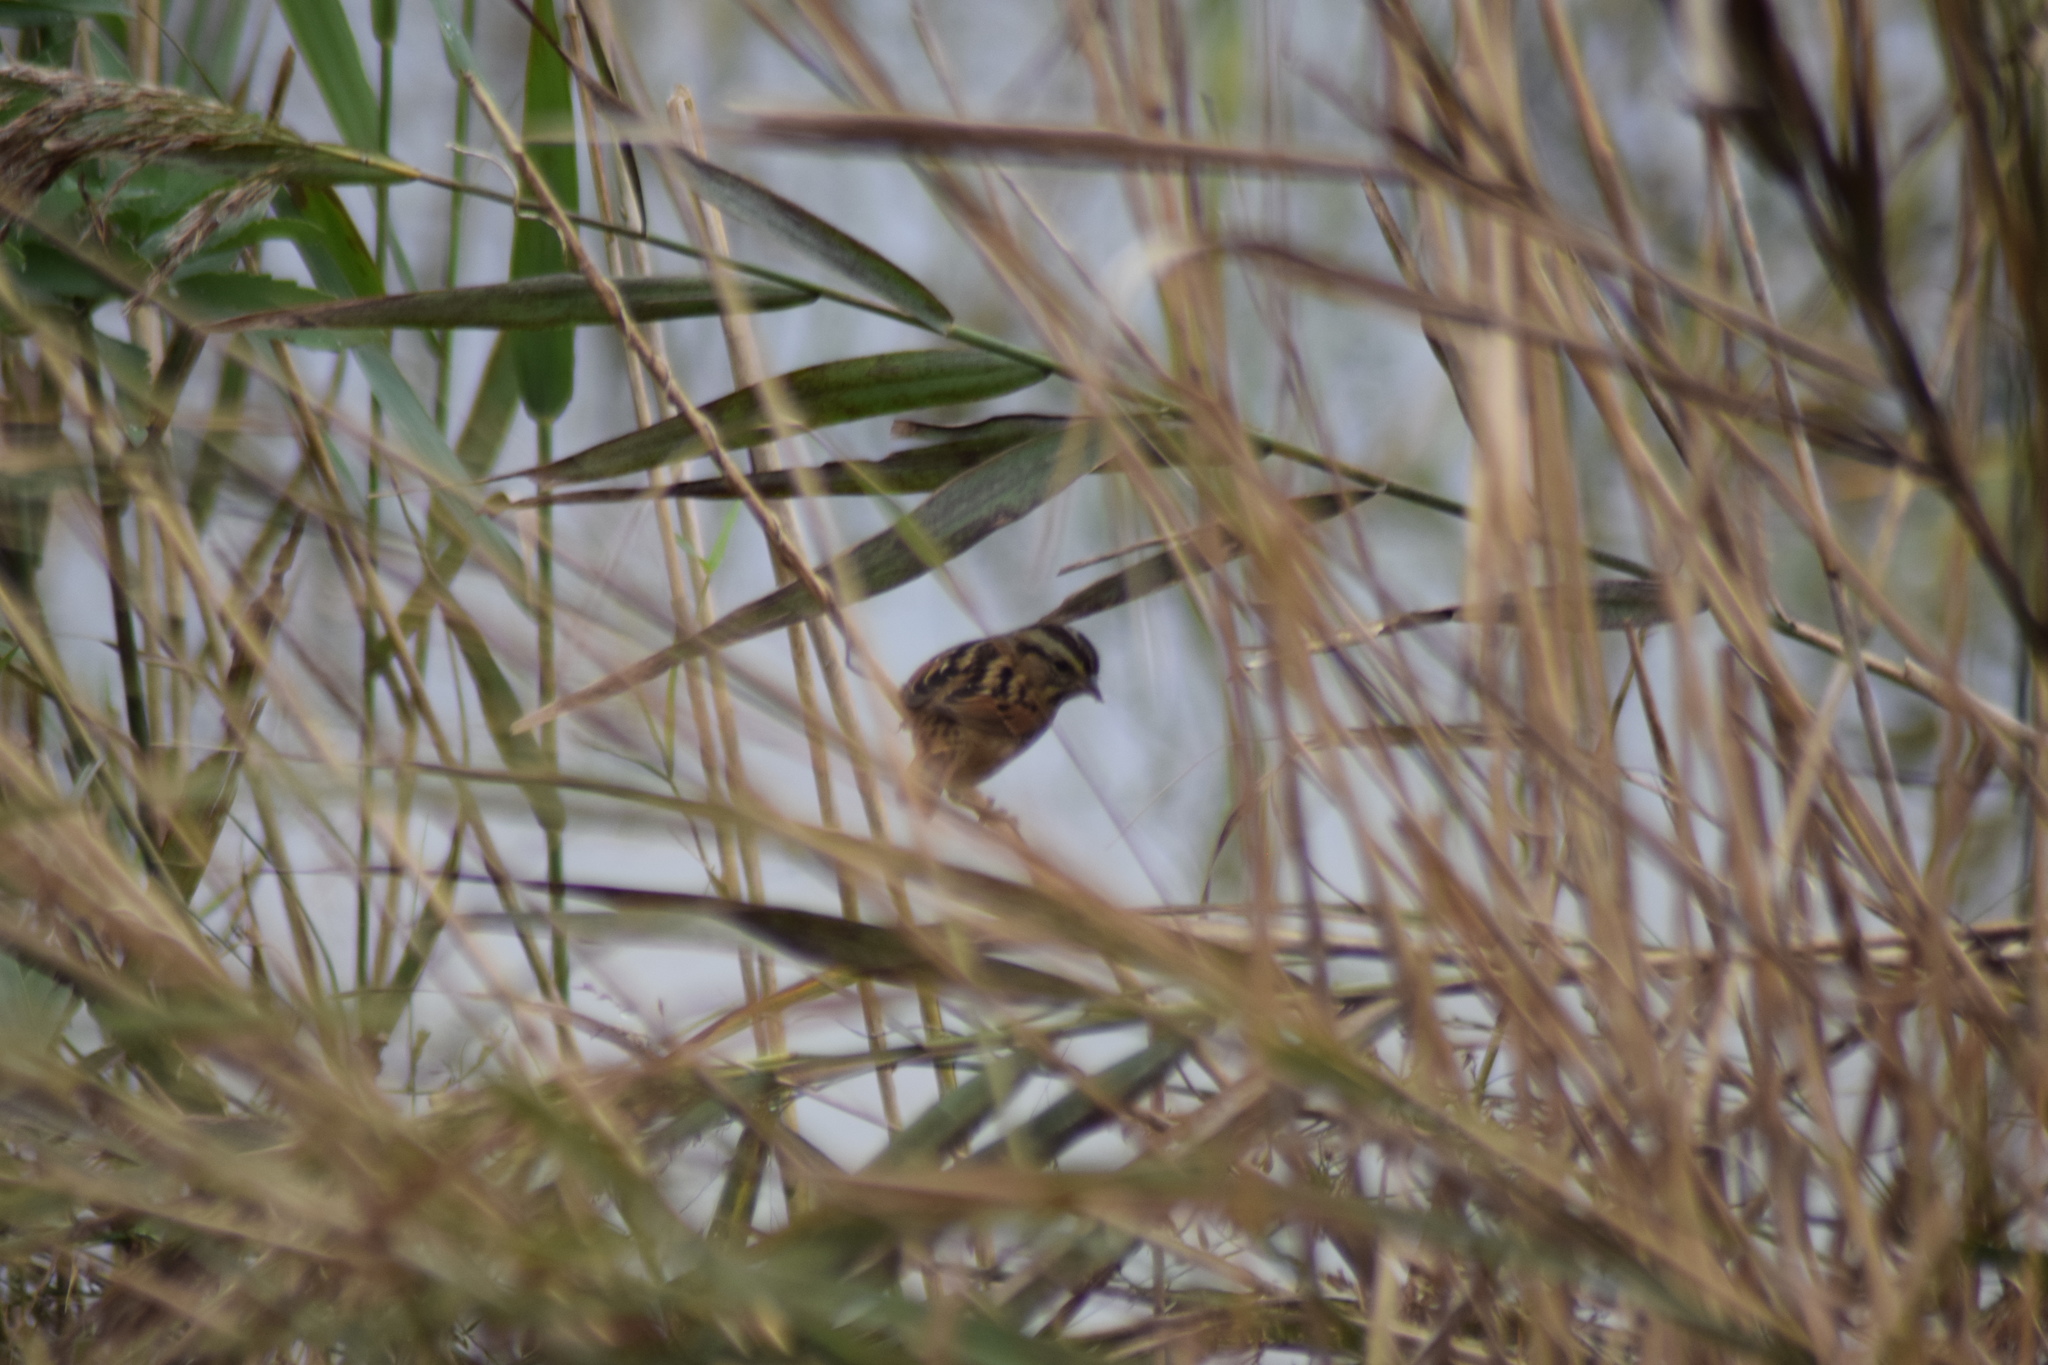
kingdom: Animalia
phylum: Chordata
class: Aves
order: Passeriformes
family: Passerellidae
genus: Melospiza
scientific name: Melospiza georgiana
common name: Swamp sparrow
